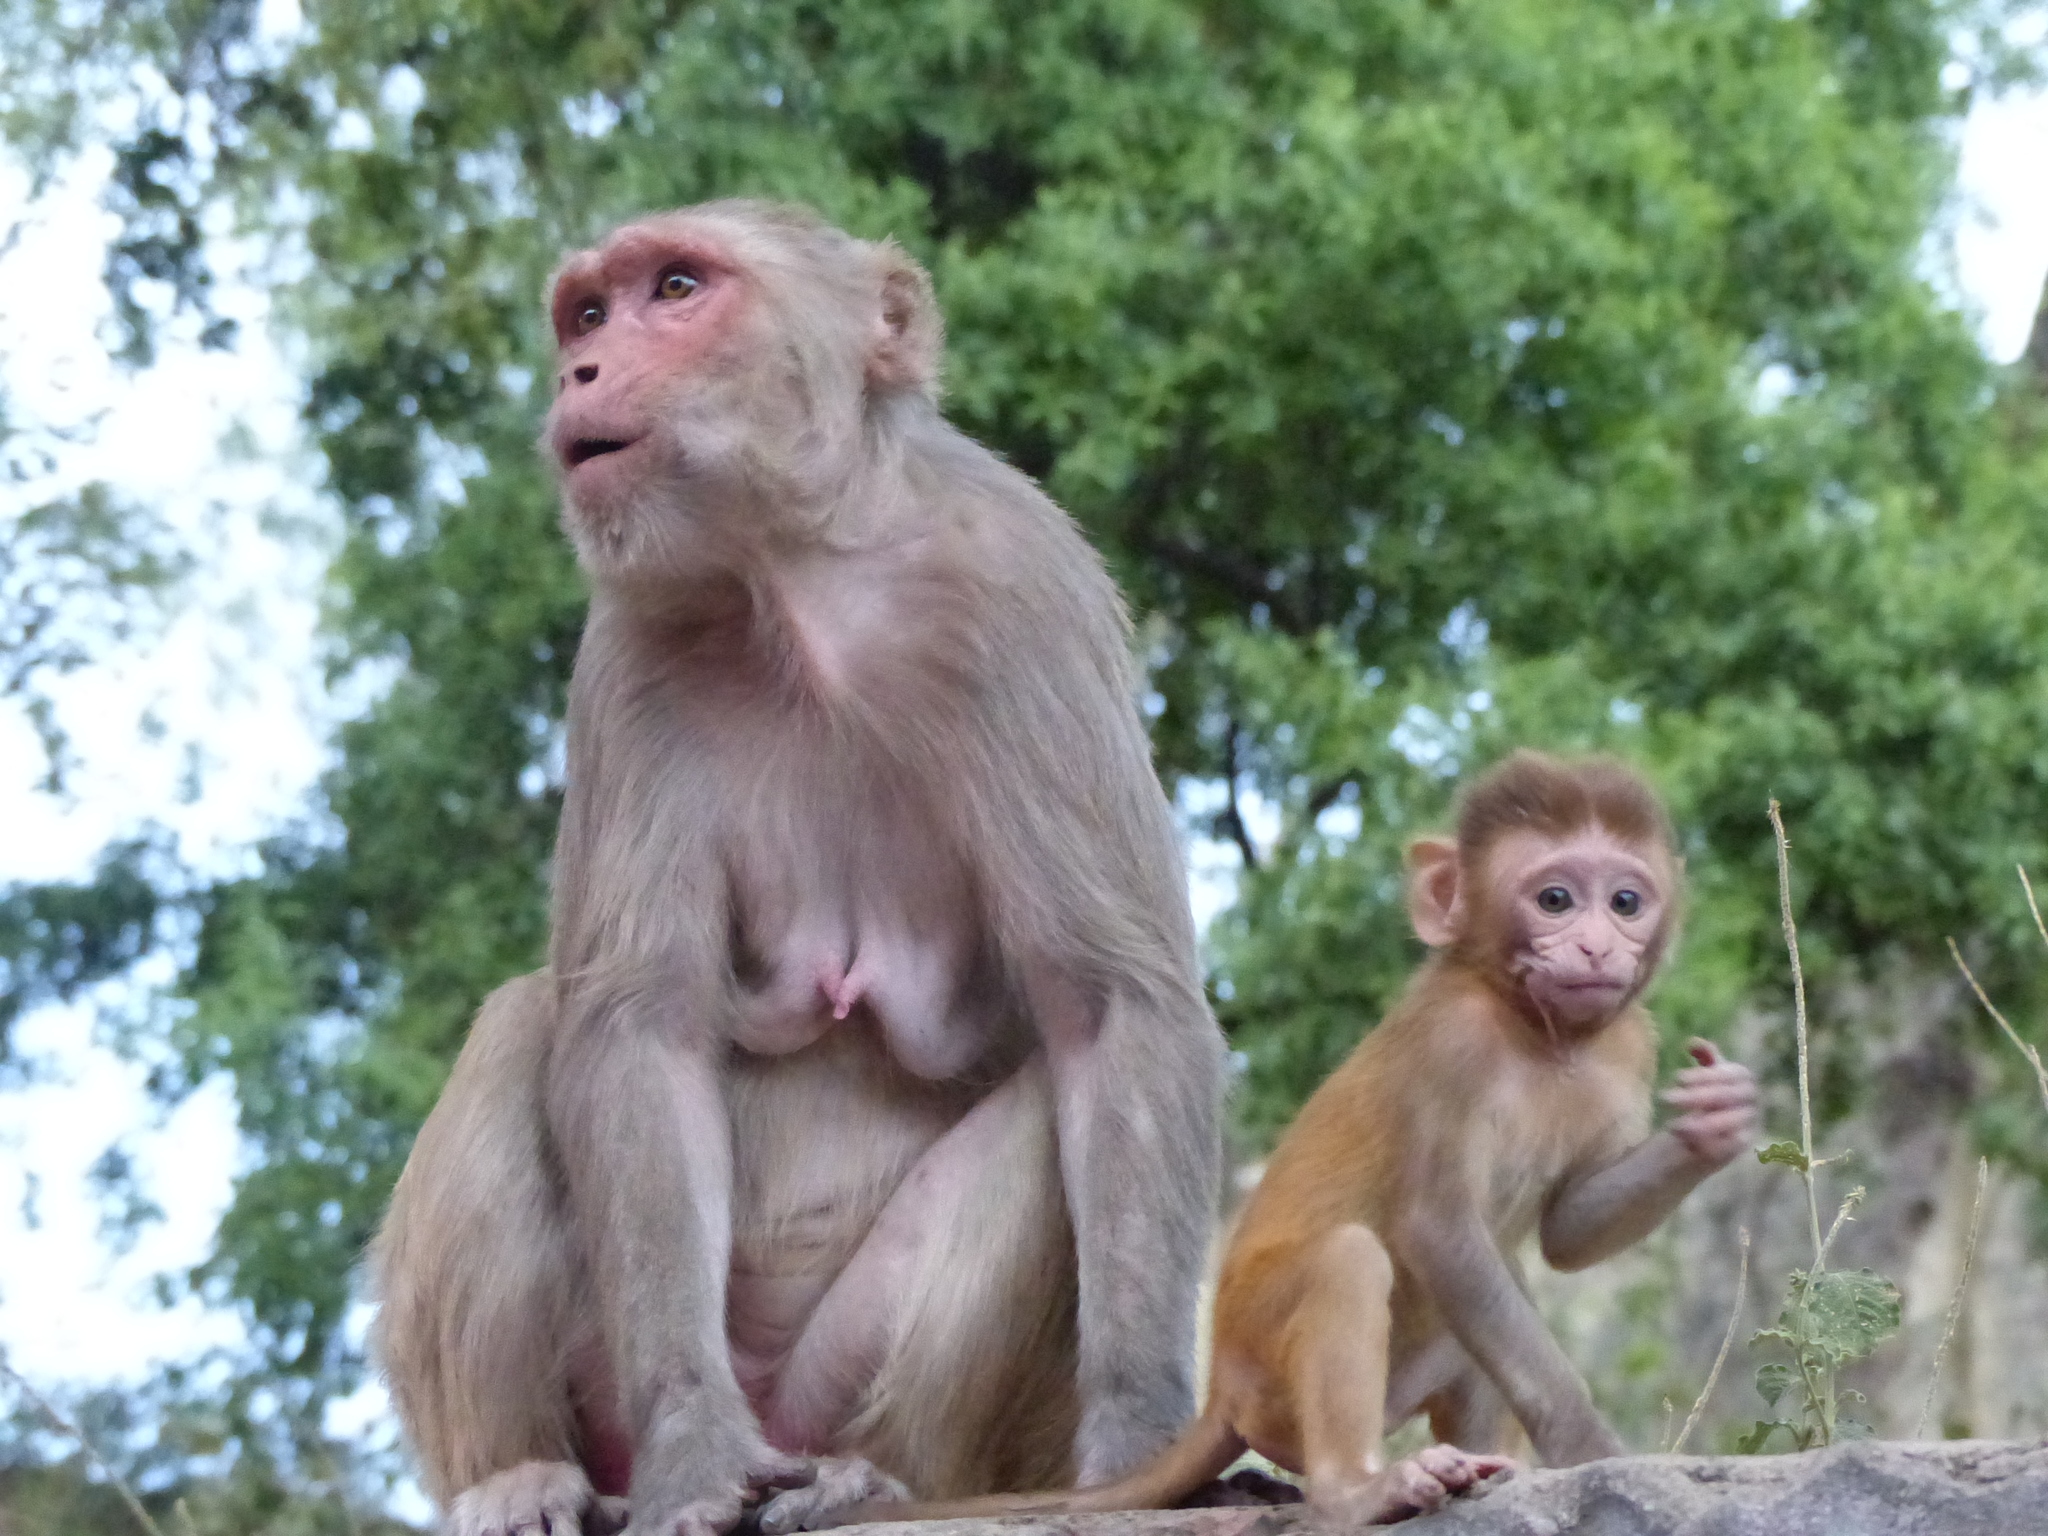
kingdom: Animalia
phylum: Chordata
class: Mammalia
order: Primates
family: Cercopithecidae
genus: Macaca
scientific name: Macaca mulatta
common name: Rhesus monkey
